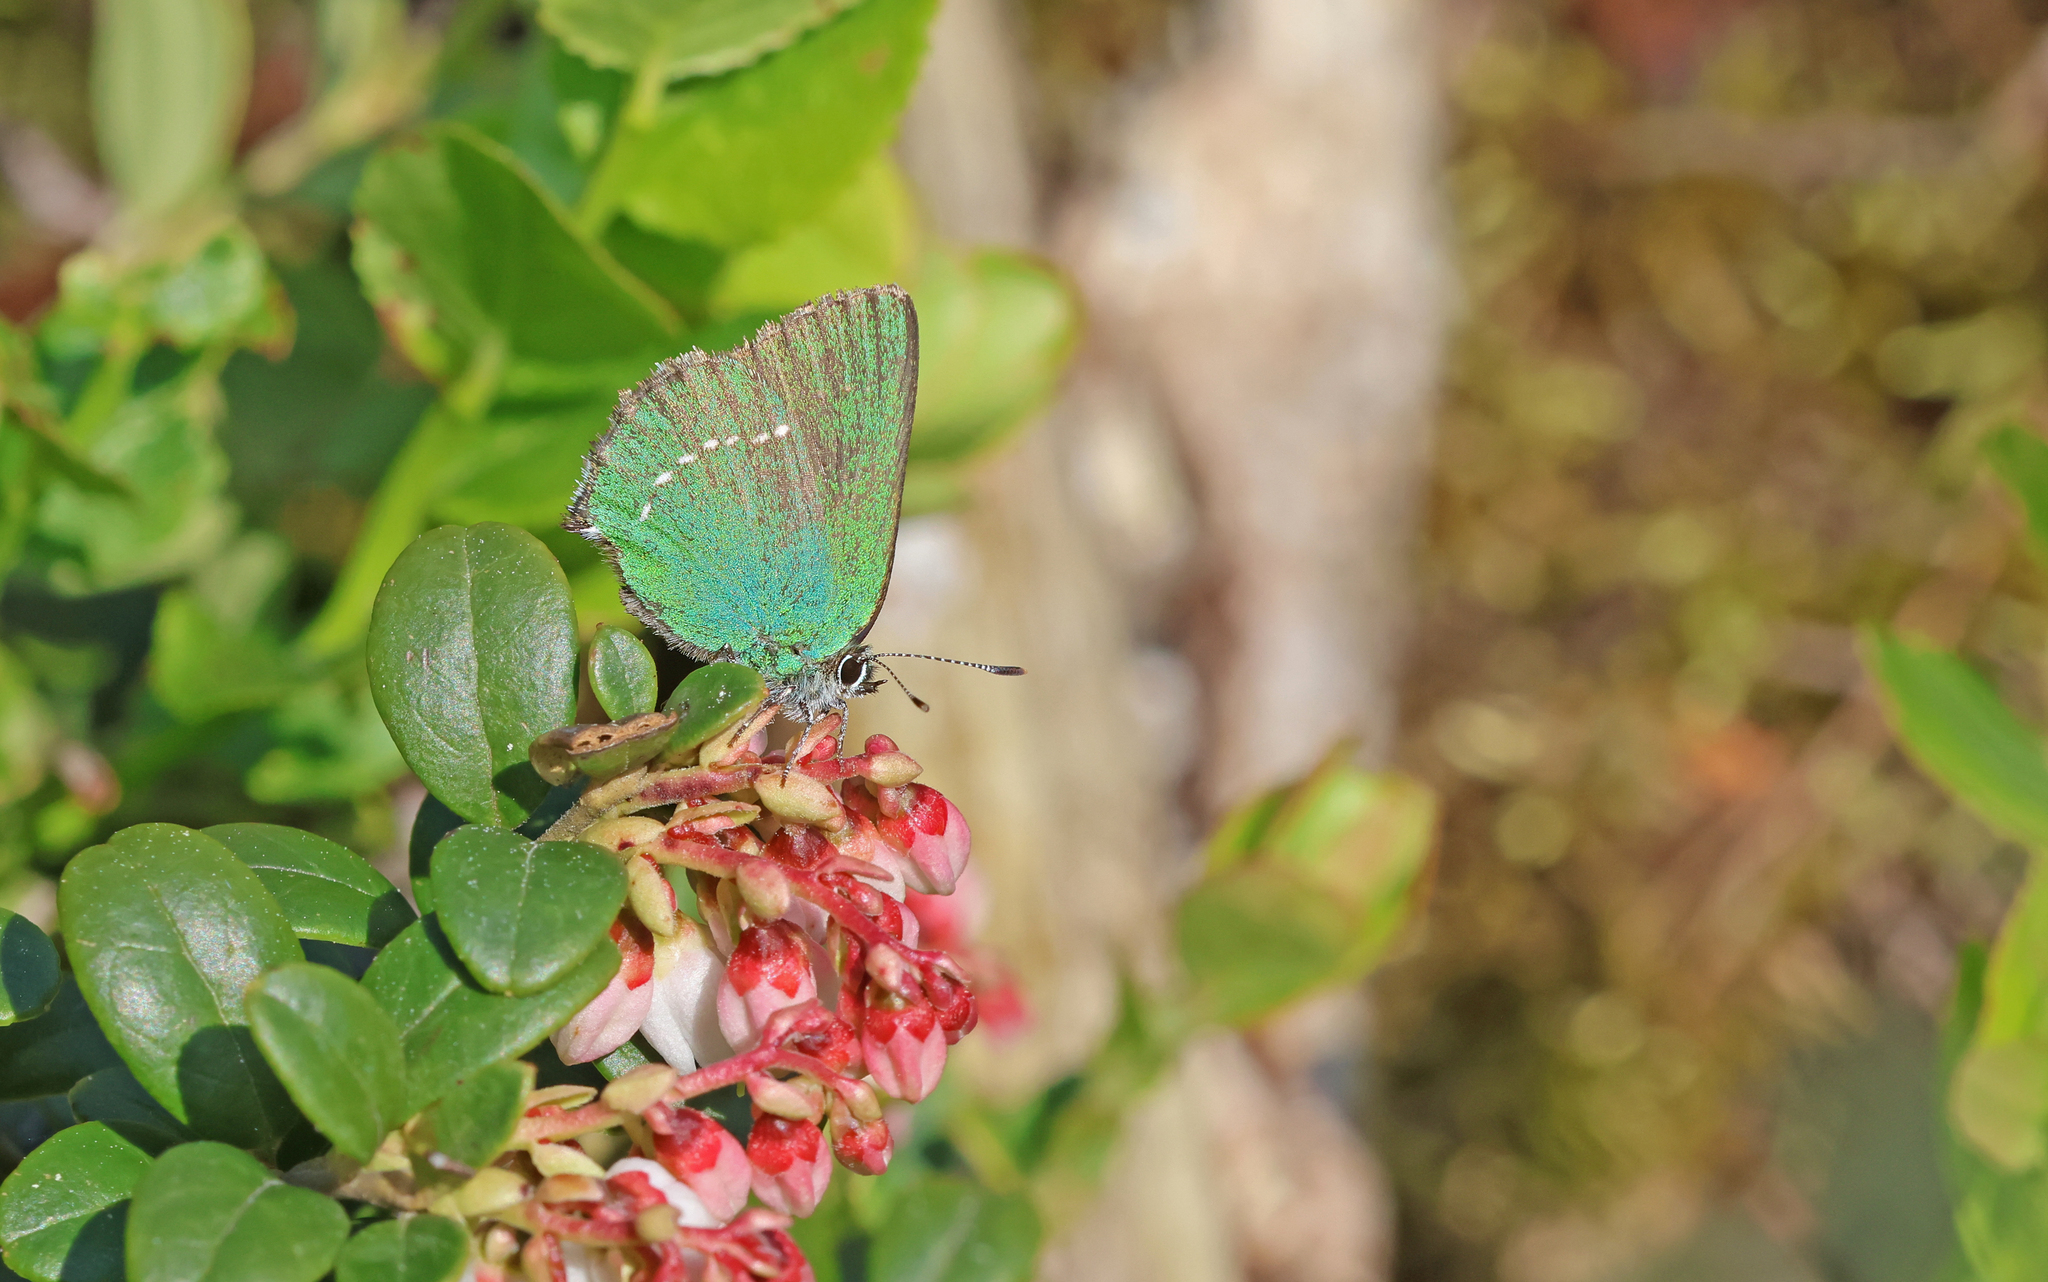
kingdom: Animalia
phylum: Arthropoda
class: Insecta
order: Lepidoptera
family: Lycaenidae
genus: Callophrys
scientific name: Callophrys rubi
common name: Green hairstreak
